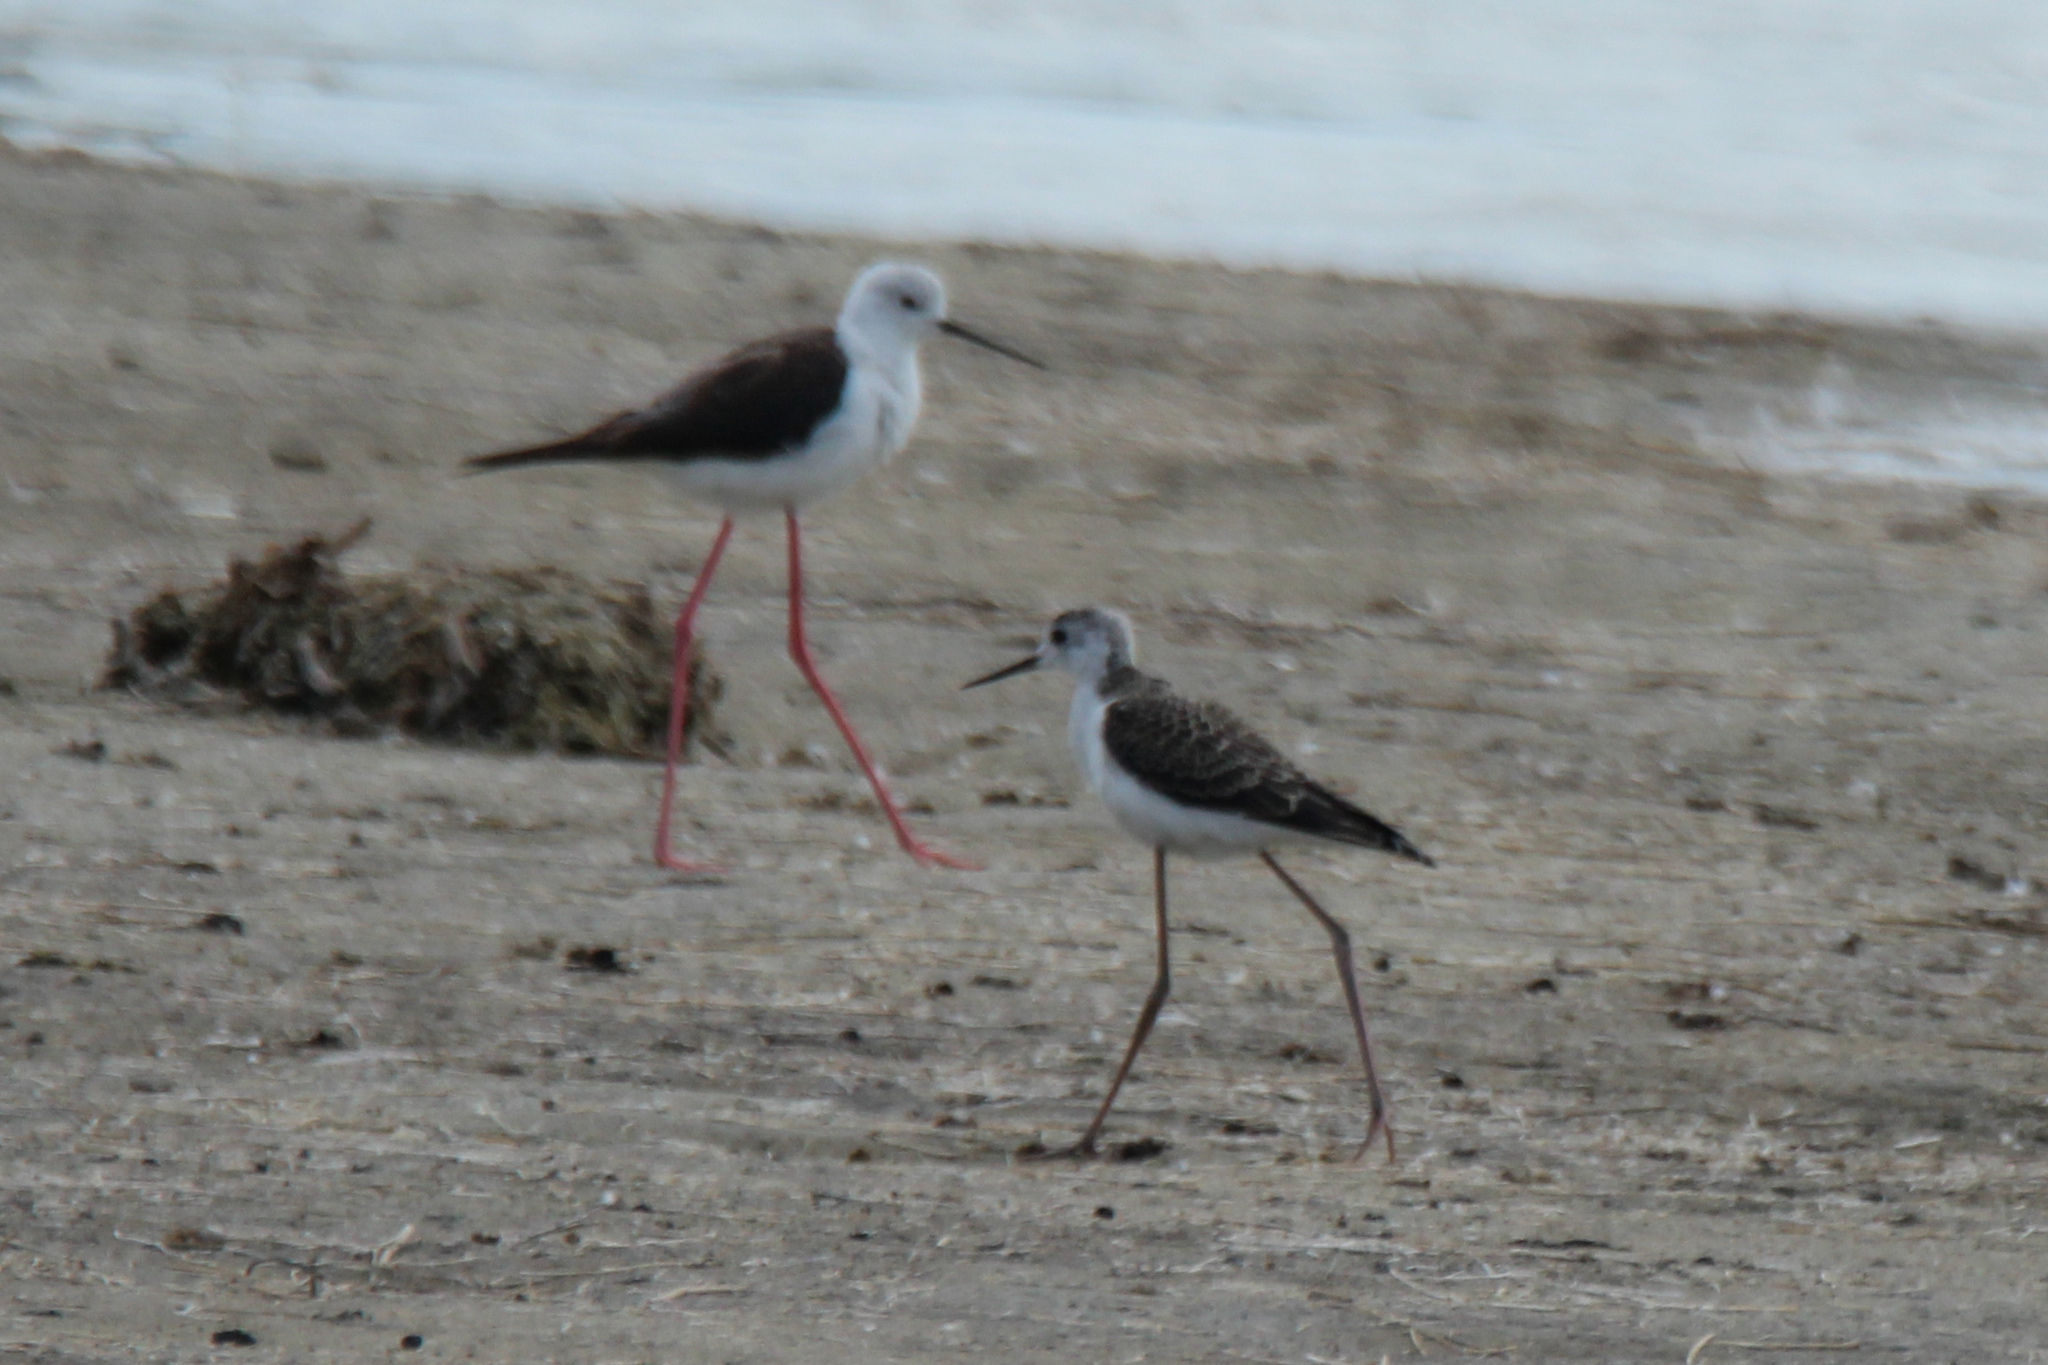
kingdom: Animalia
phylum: Chordata
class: Aves
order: Charadriiformes
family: Recurvirostridae
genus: Himantopus
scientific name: Himantopus himantopus
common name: Black-winged stilt
